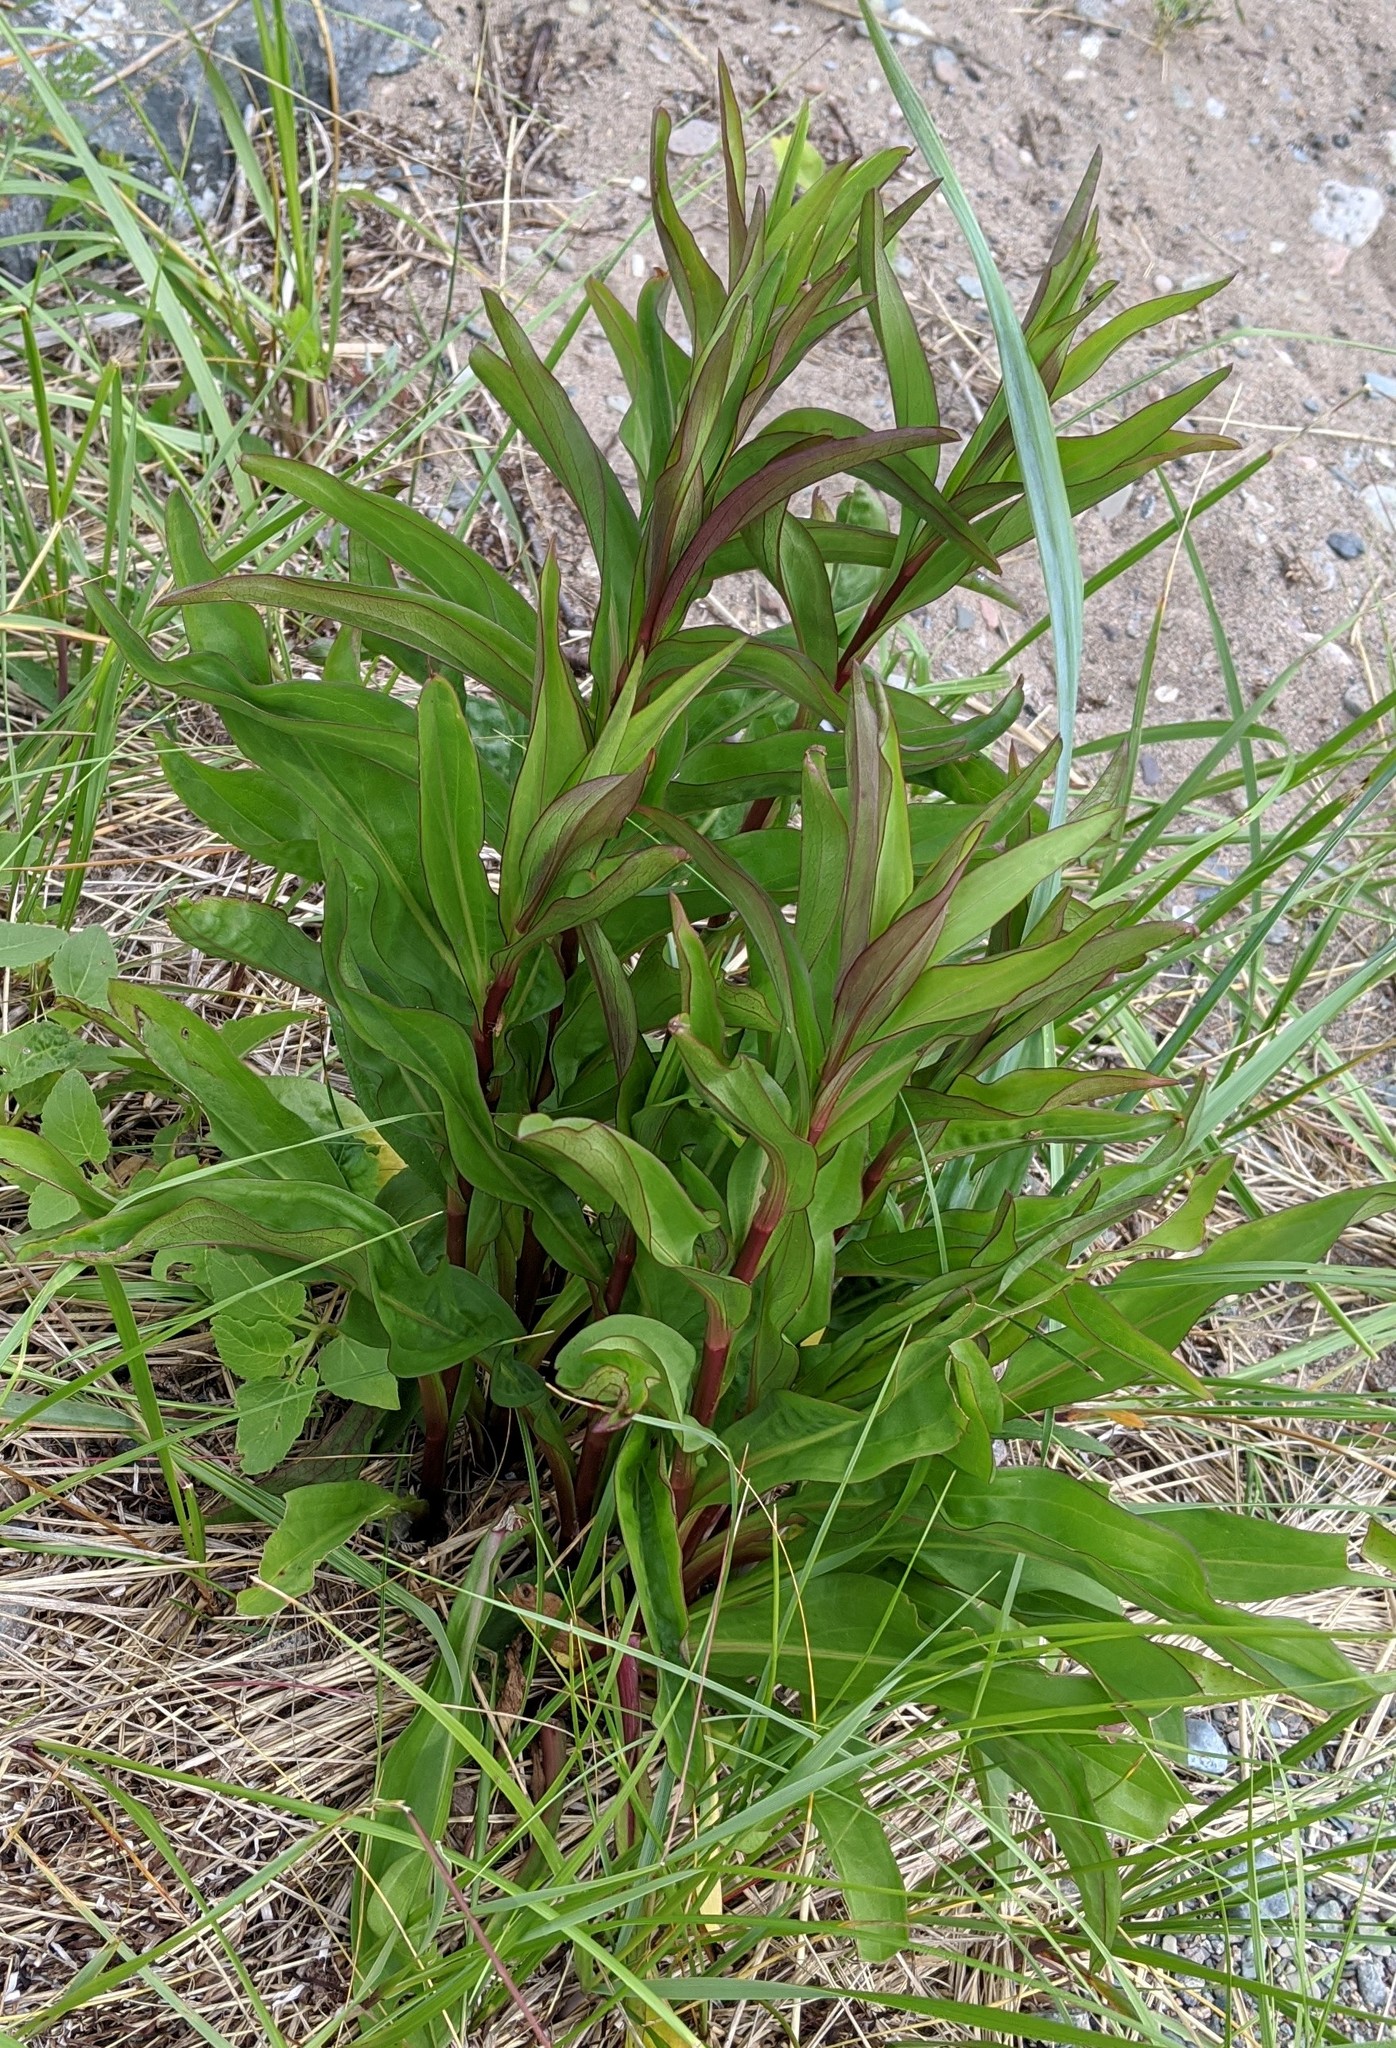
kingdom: Plantae
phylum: Tracheophyta
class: Magnoliopsida
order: Asterales
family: Asteraceae
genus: Solidago
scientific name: Solidago sempervirens
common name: Salt-marsh goldenrod
